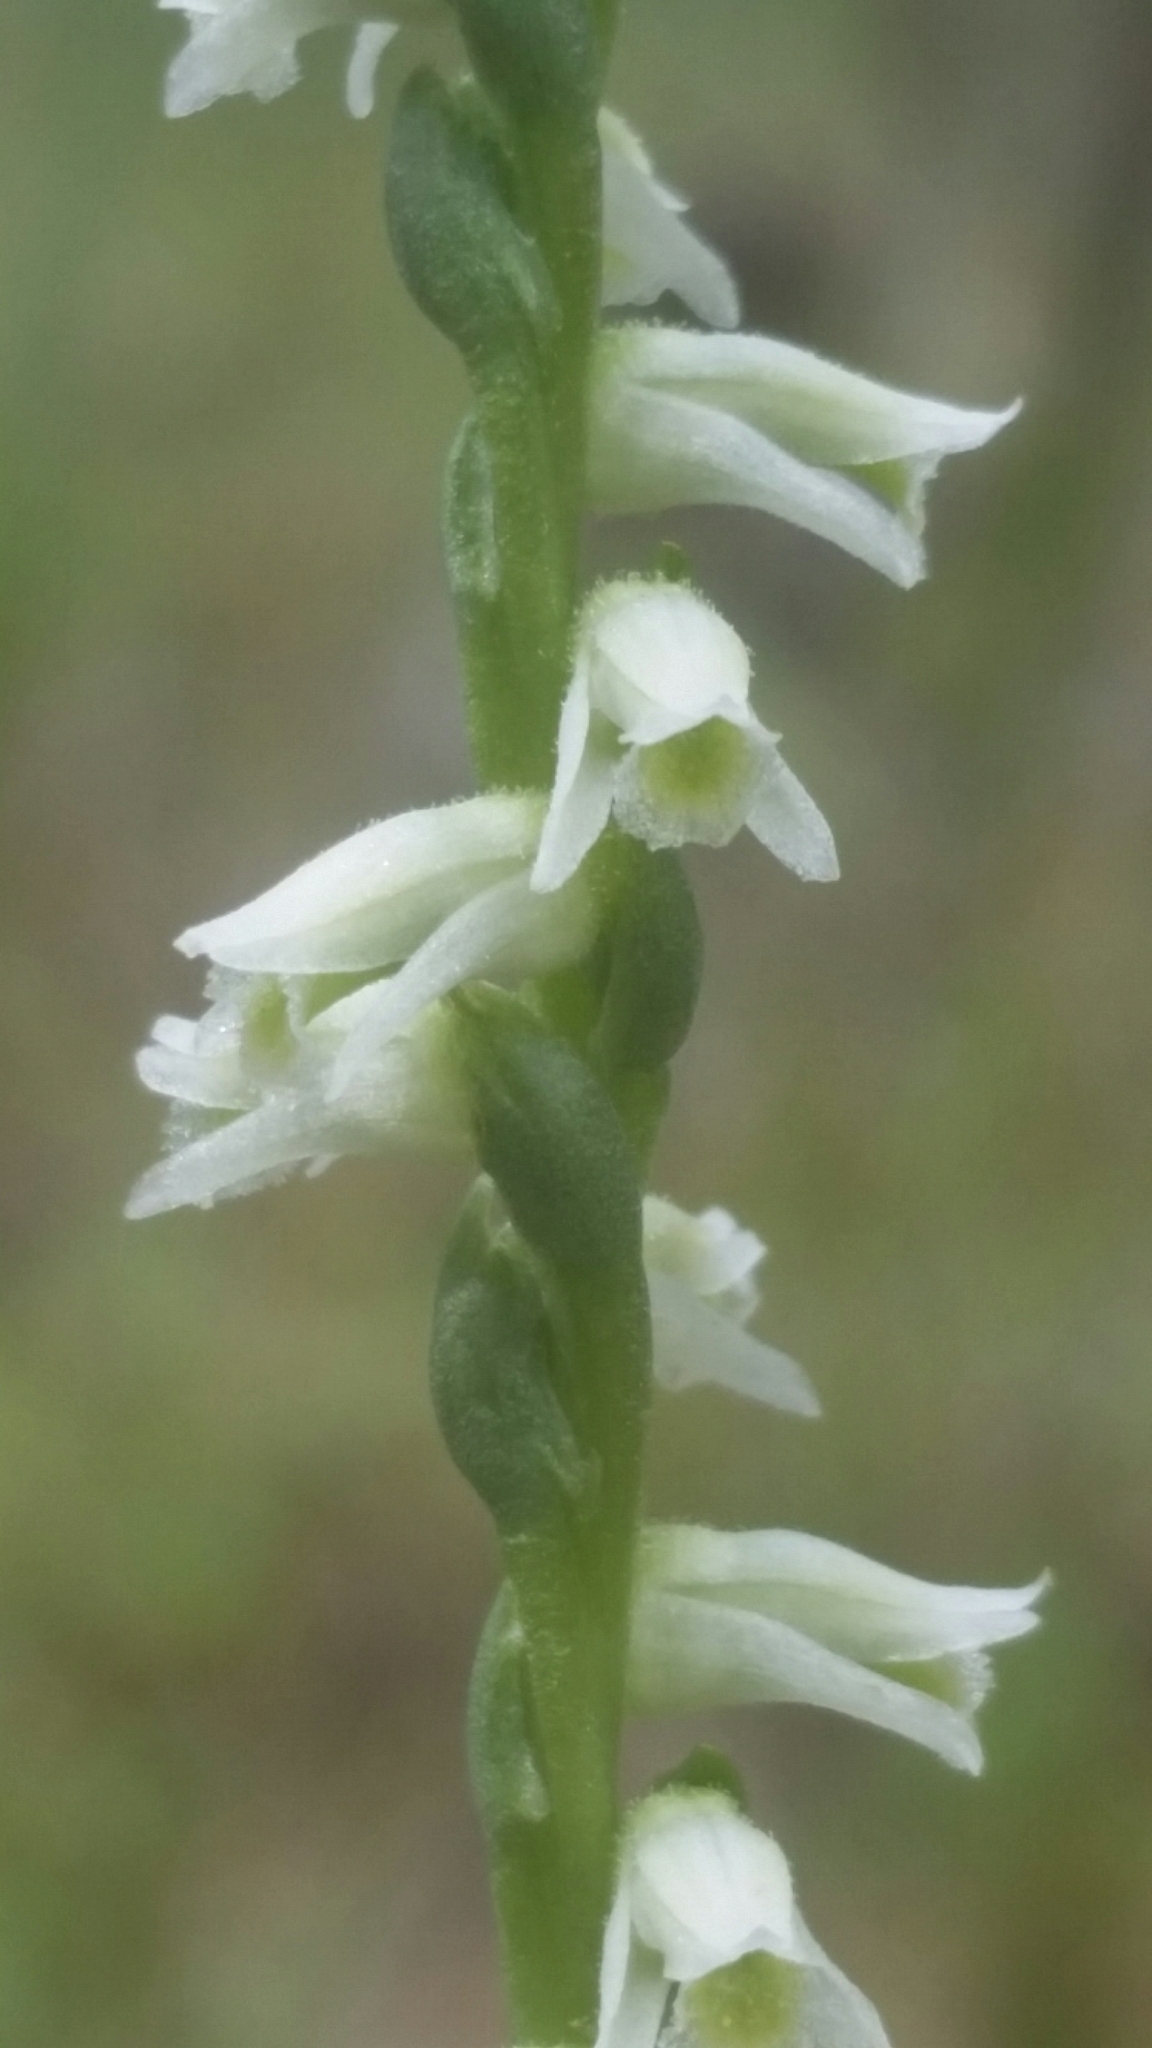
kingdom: Plantae
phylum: Tracheophyta
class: Liliopsida
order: Asparagales
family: Orchidaceae
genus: Spiranthes
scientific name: Spiranthes torta
